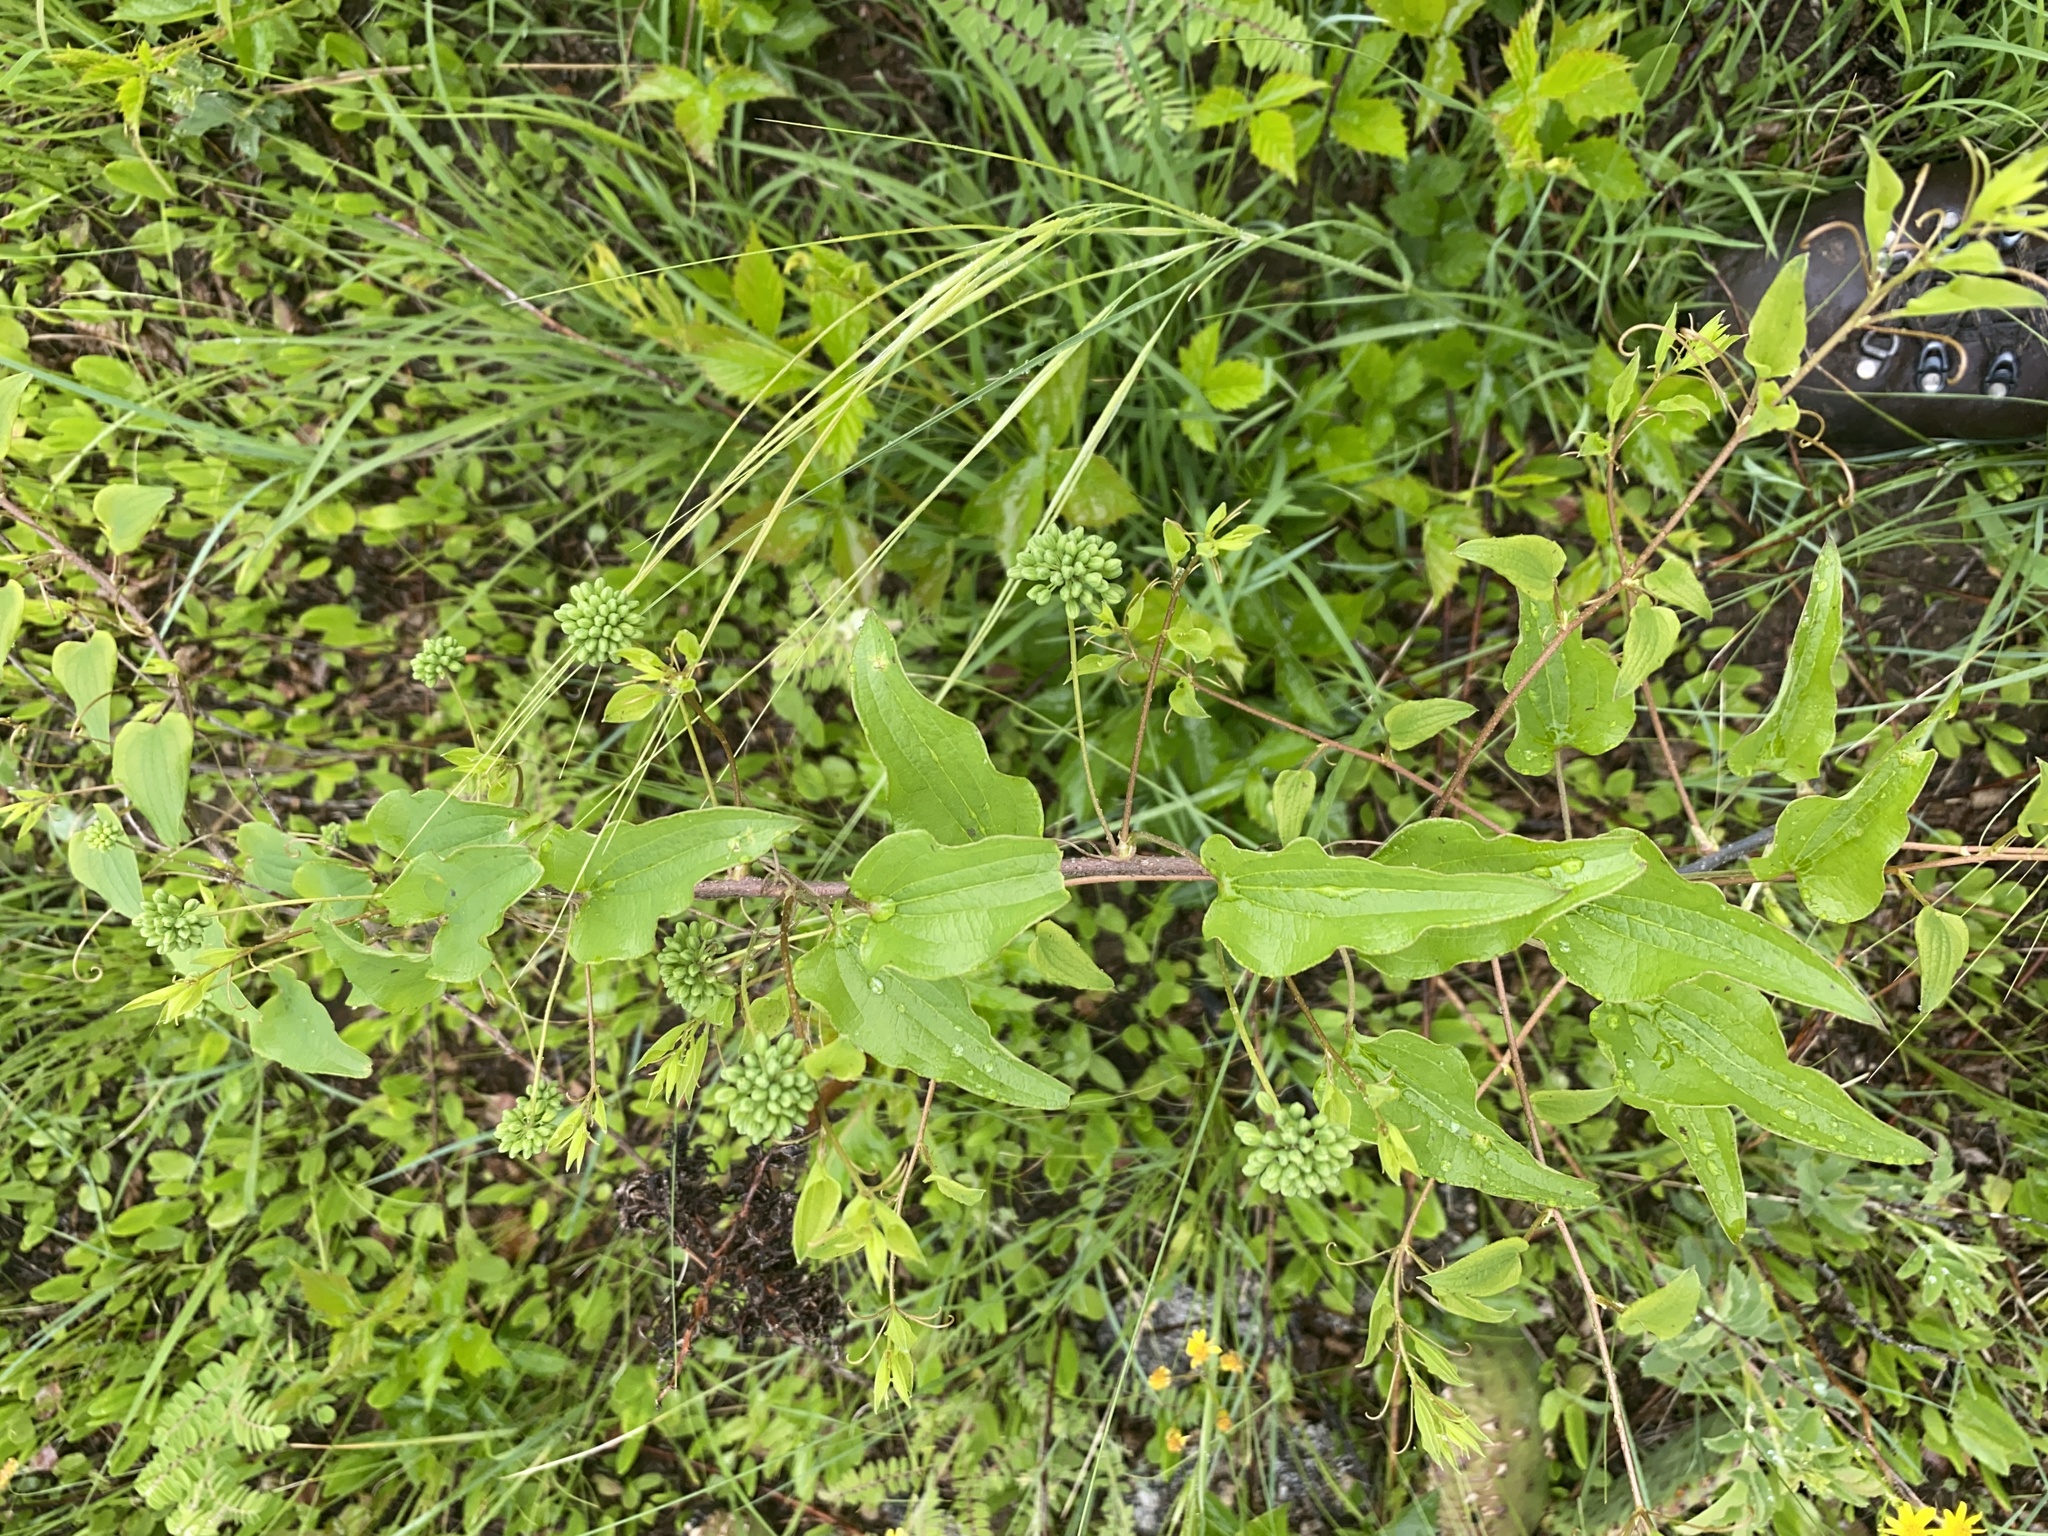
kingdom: Plantae
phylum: Tracheophyta
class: Liliopsida
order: Liliales
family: Smilacaceae
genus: Smilax
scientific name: Smilax lasioneura
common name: Blue ridge carrionflower
